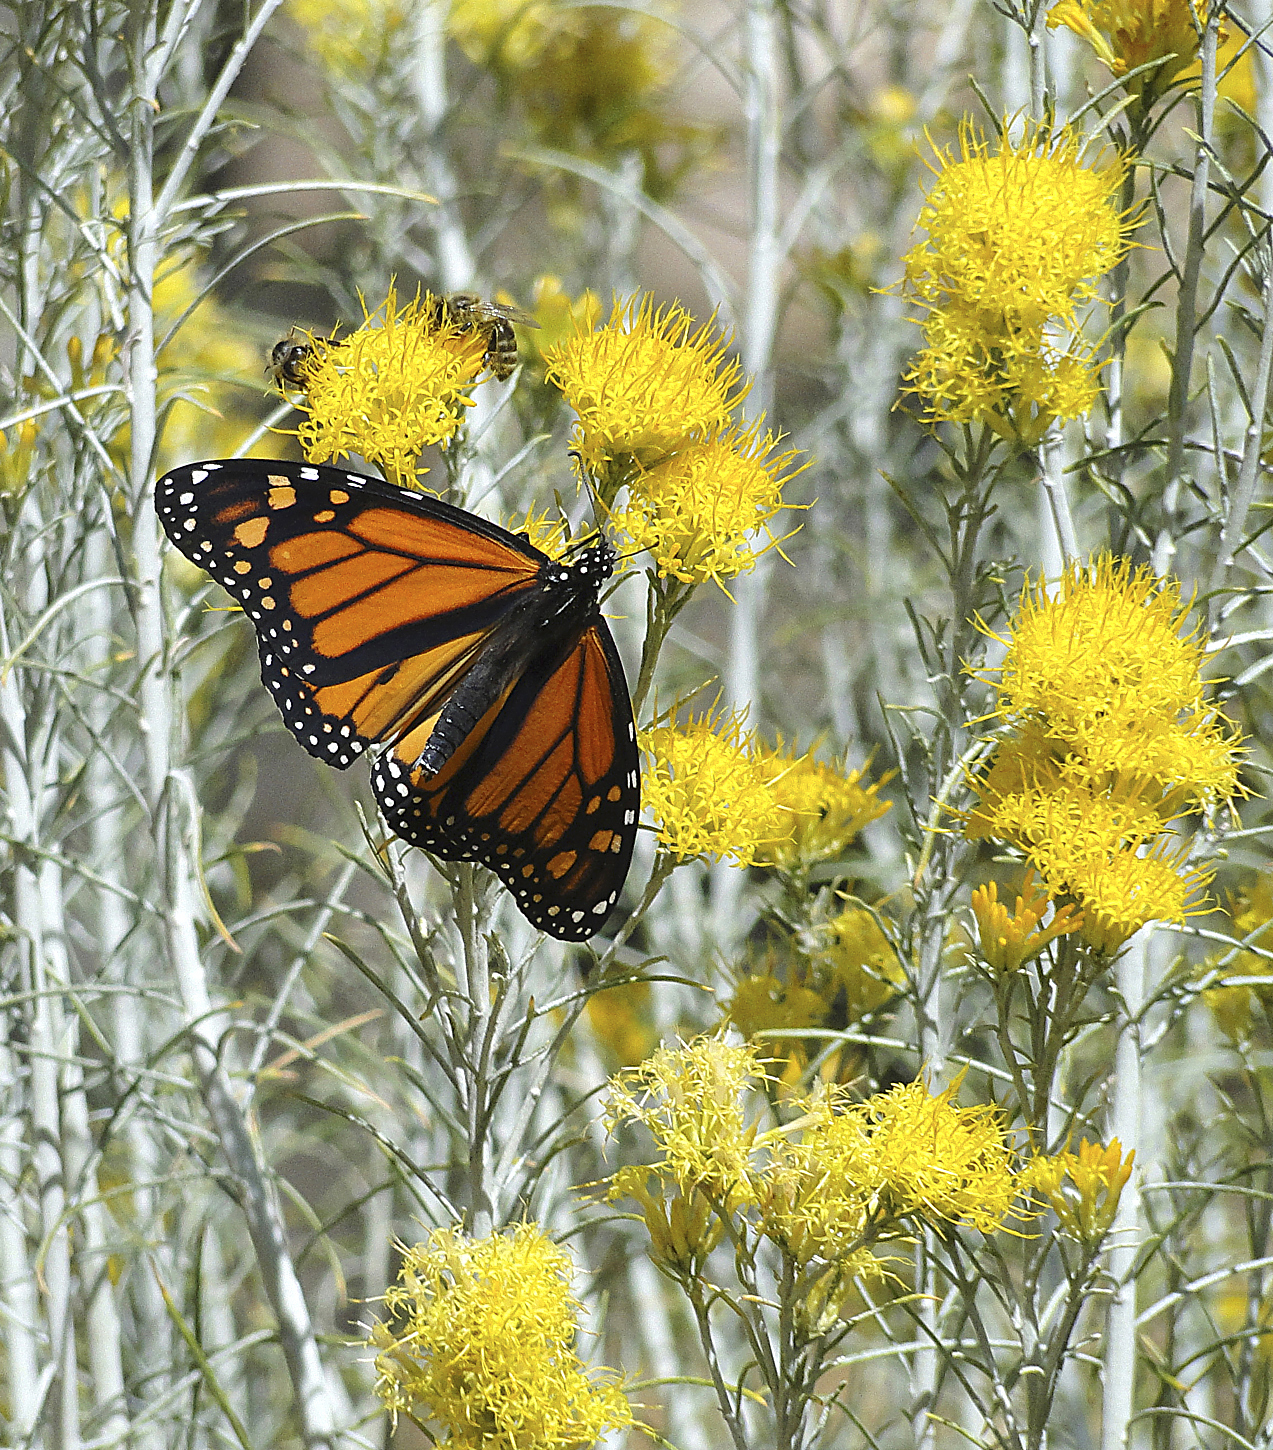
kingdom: Animalia
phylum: Arthropoda
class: Insecta
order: Lepidoptera
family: Nymphalidae
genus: Danaus
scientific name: Danaus plexippus
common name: Monarch
